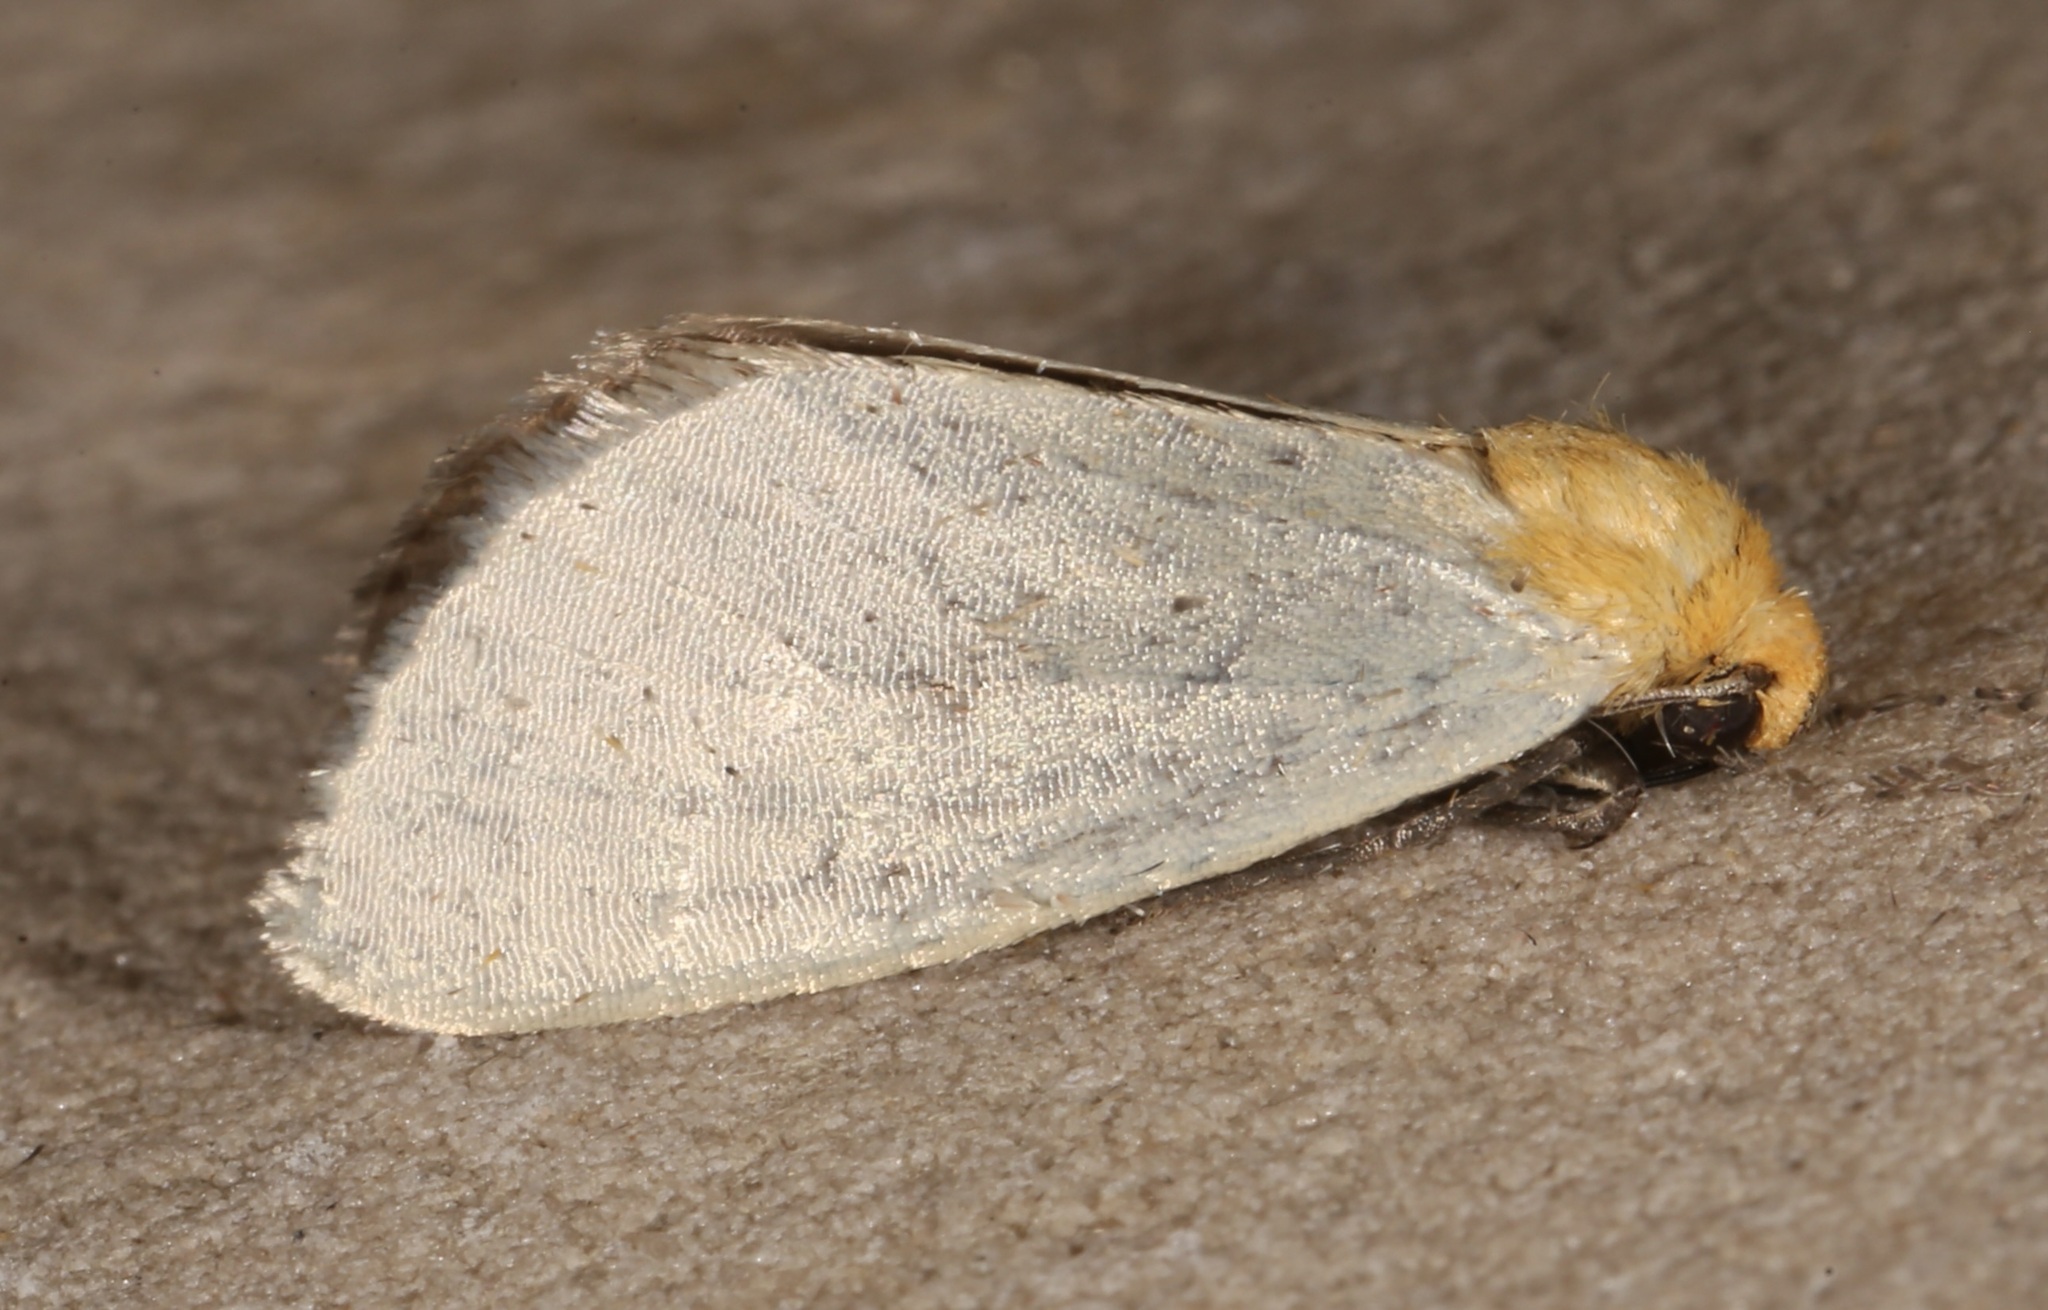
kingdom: Animalia
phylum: Arthropoda
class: Insecta
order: Lepidoptera
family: Noctuidae
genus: Chrysoecia
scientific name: Chrysoecia thoracica
